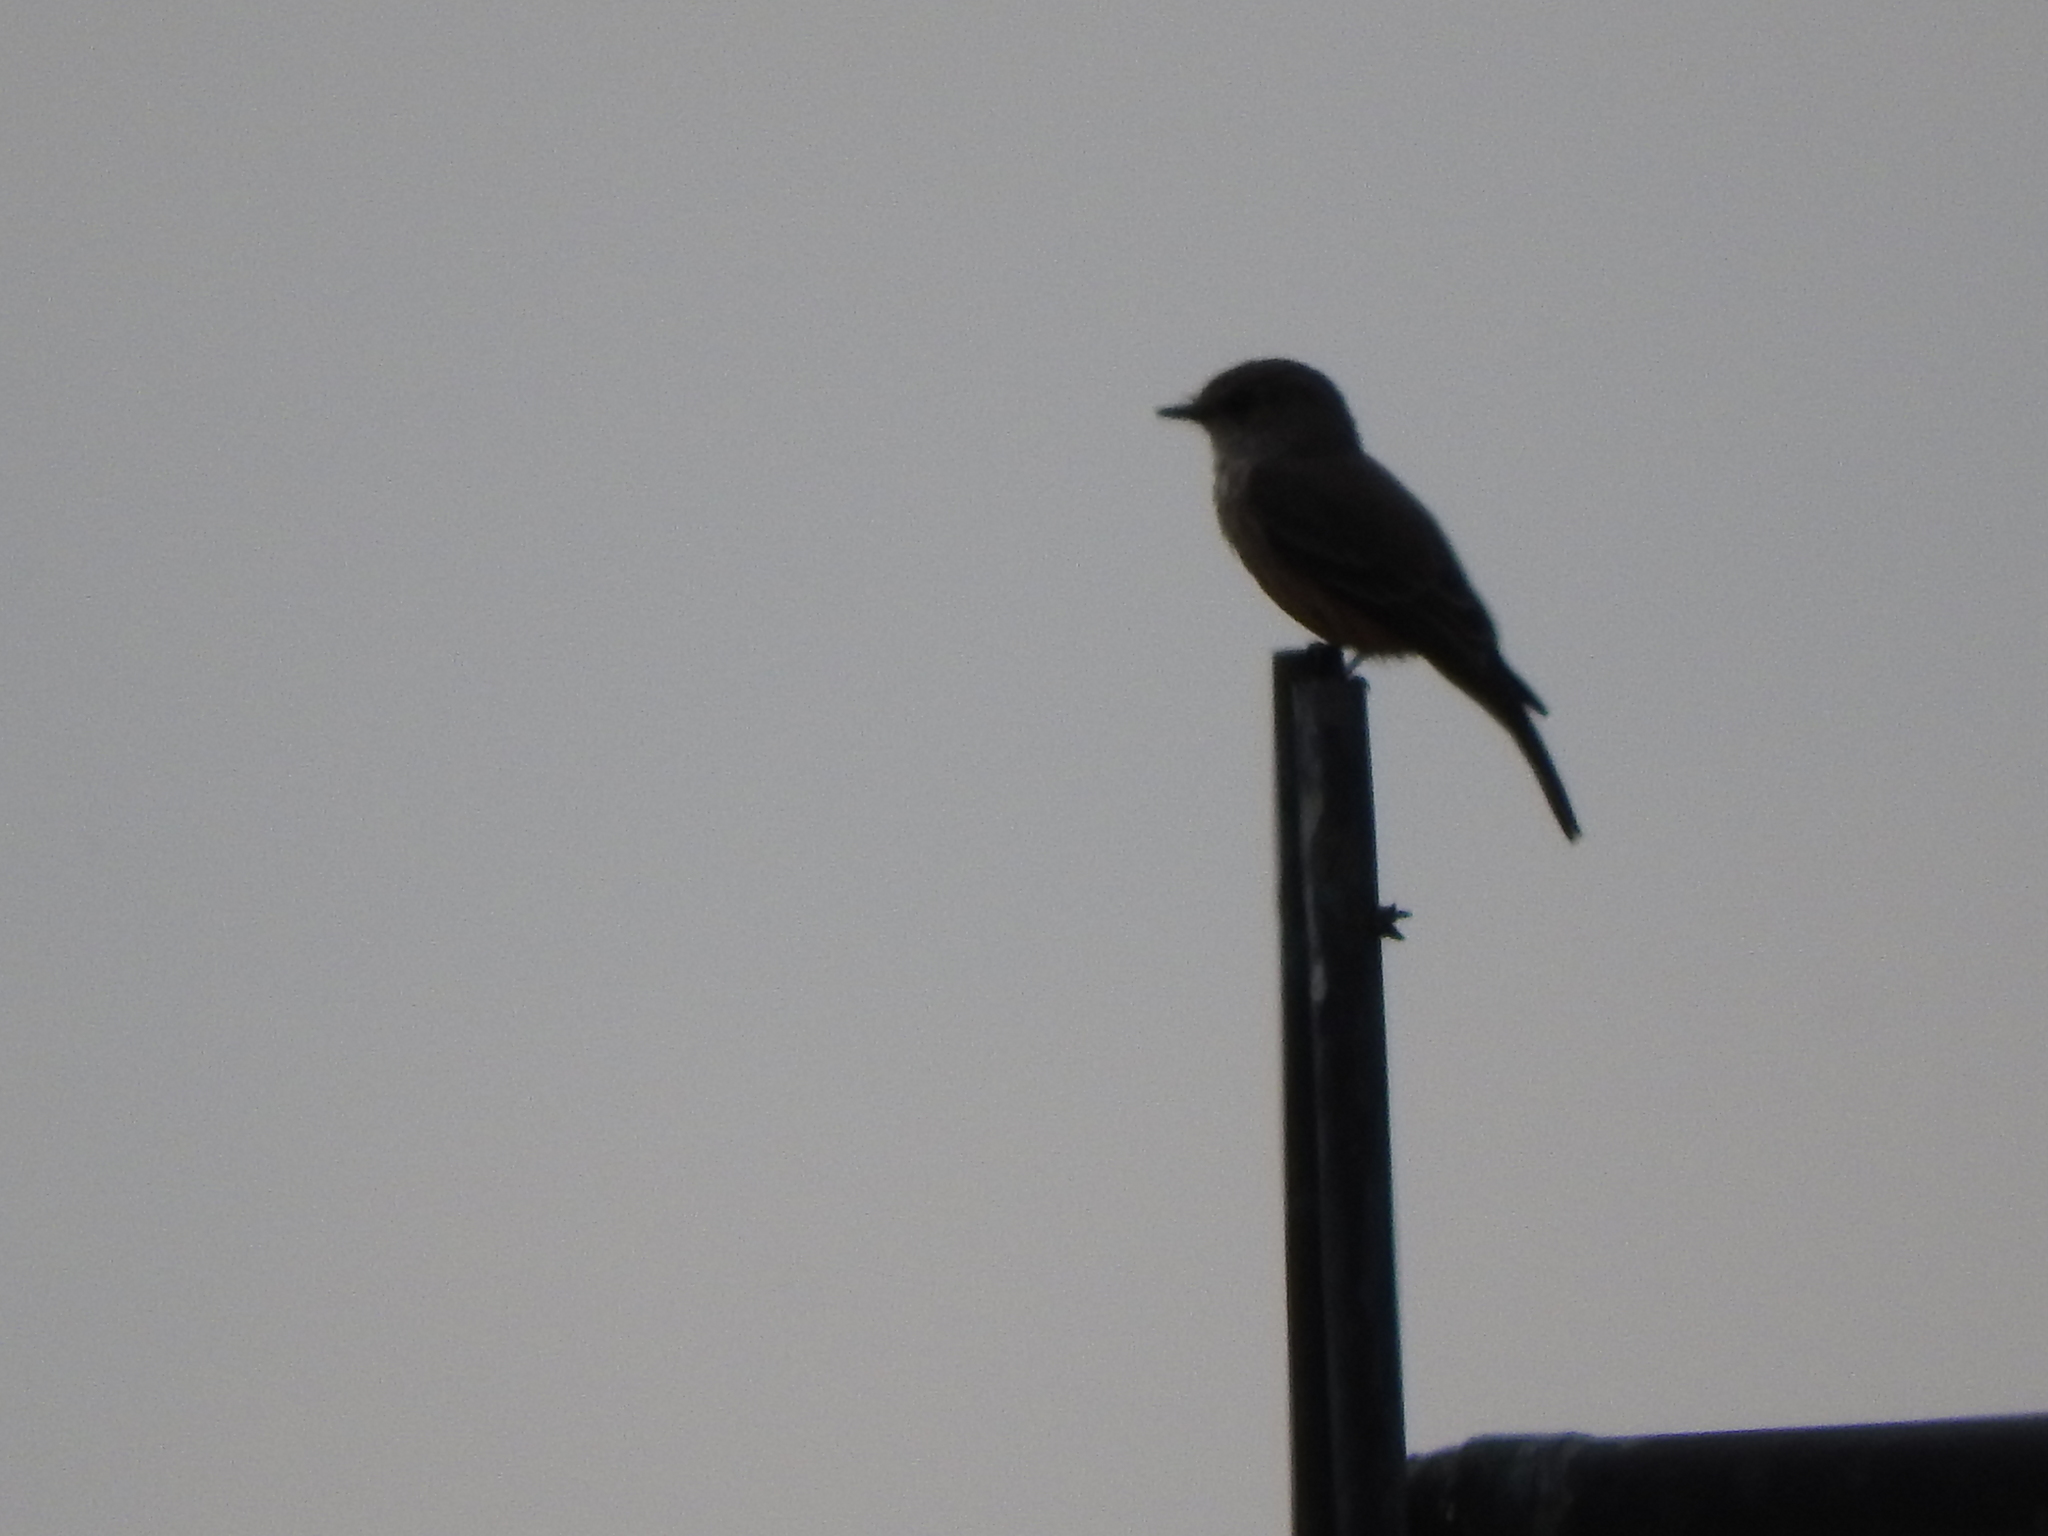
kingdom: Animalia
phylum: Chordata
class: Aves
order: Passeriformes
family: Tyrannidae
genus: Pyrocephalus
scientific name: Pyrocephalus rubinus
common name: Vermilion flycatcher
